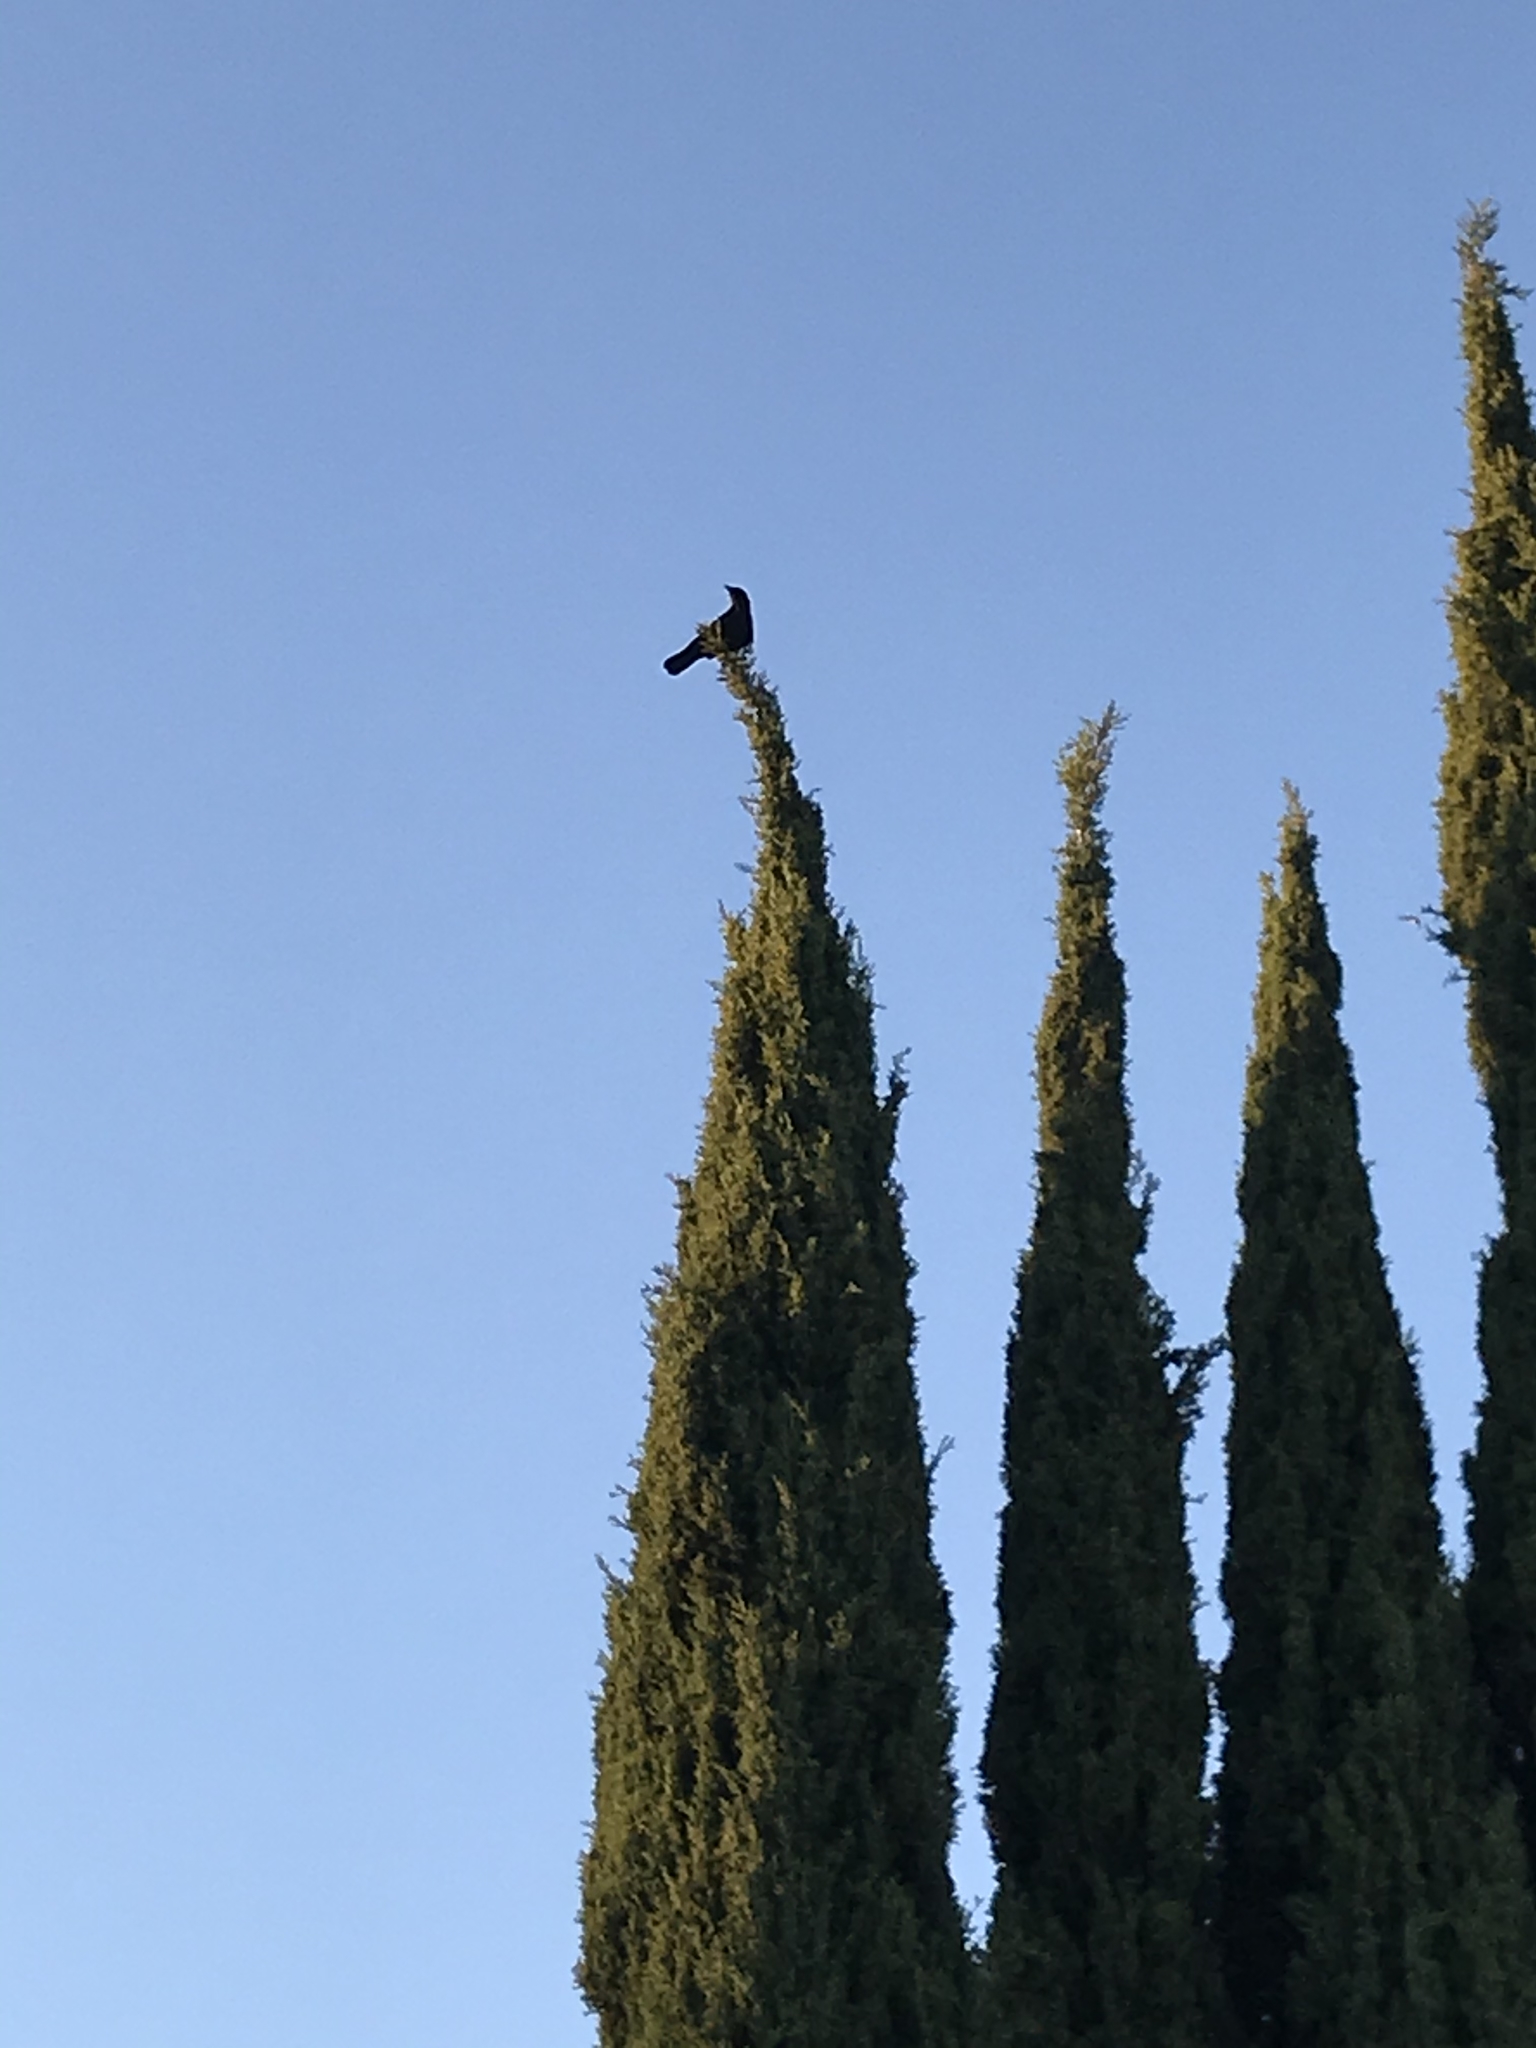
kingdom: Animalia
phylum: Chordata
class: Aves
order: Passeriformes
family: Corvidae
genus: Corvus
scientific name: Corvus brachyrhynchos
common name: American crow
